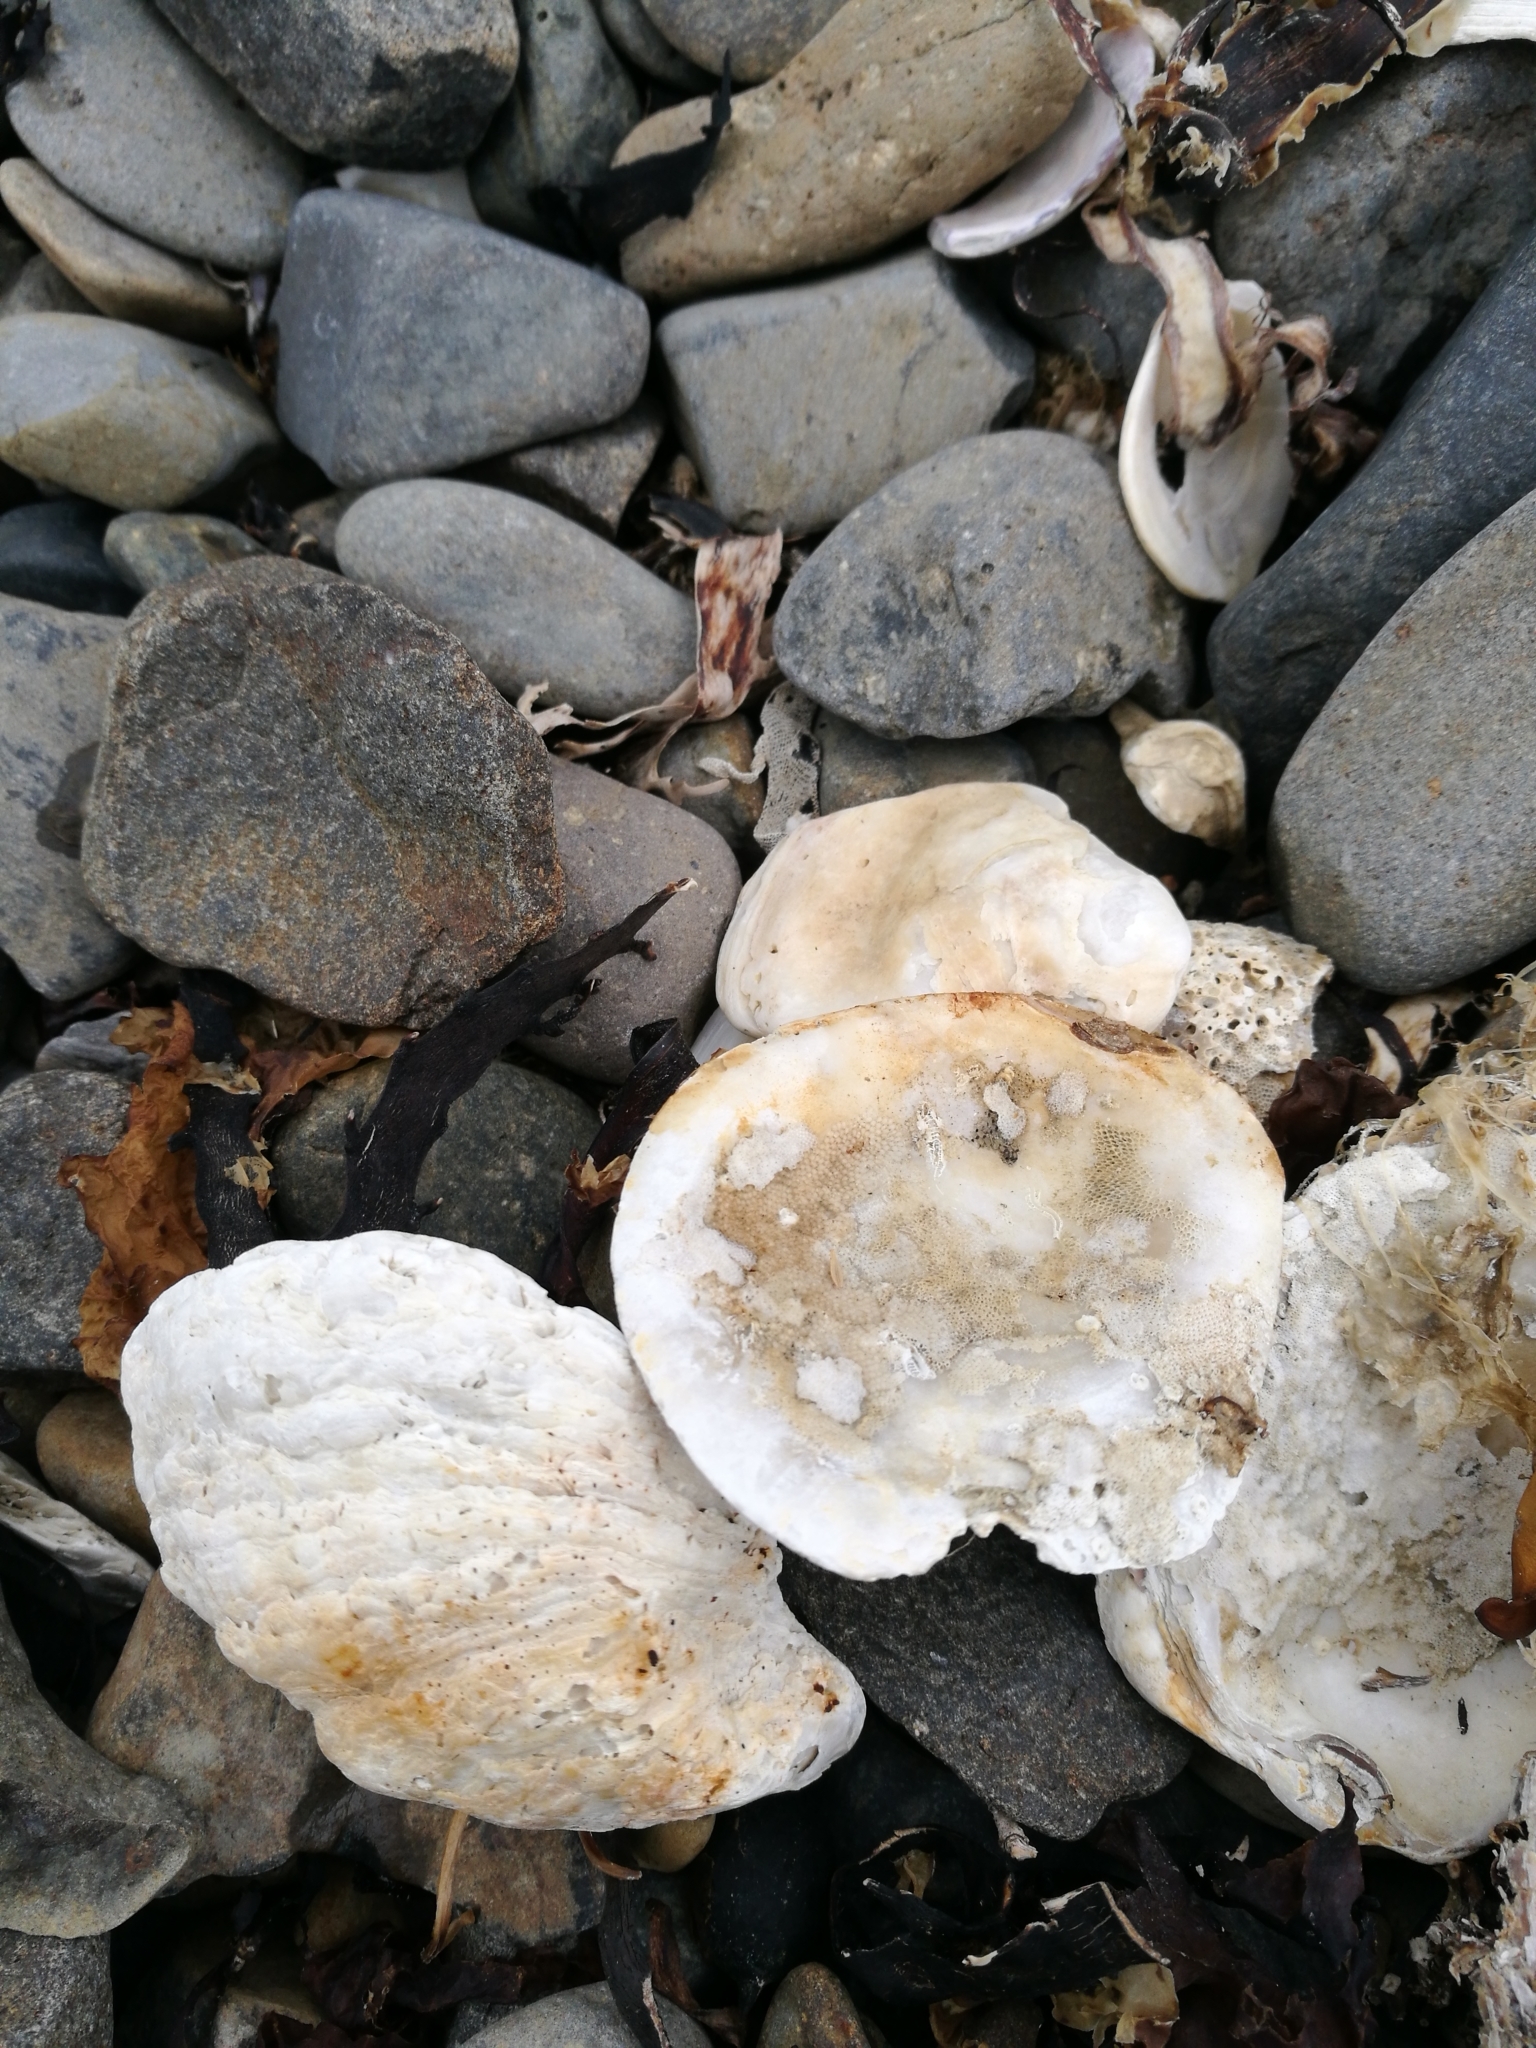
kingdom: Animalia
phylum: Mollusca
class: Bivalvia
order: Ostreida
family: Ostreidae
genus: Ostrea
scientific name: Ostrea chilensis
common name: Chilean oyster
